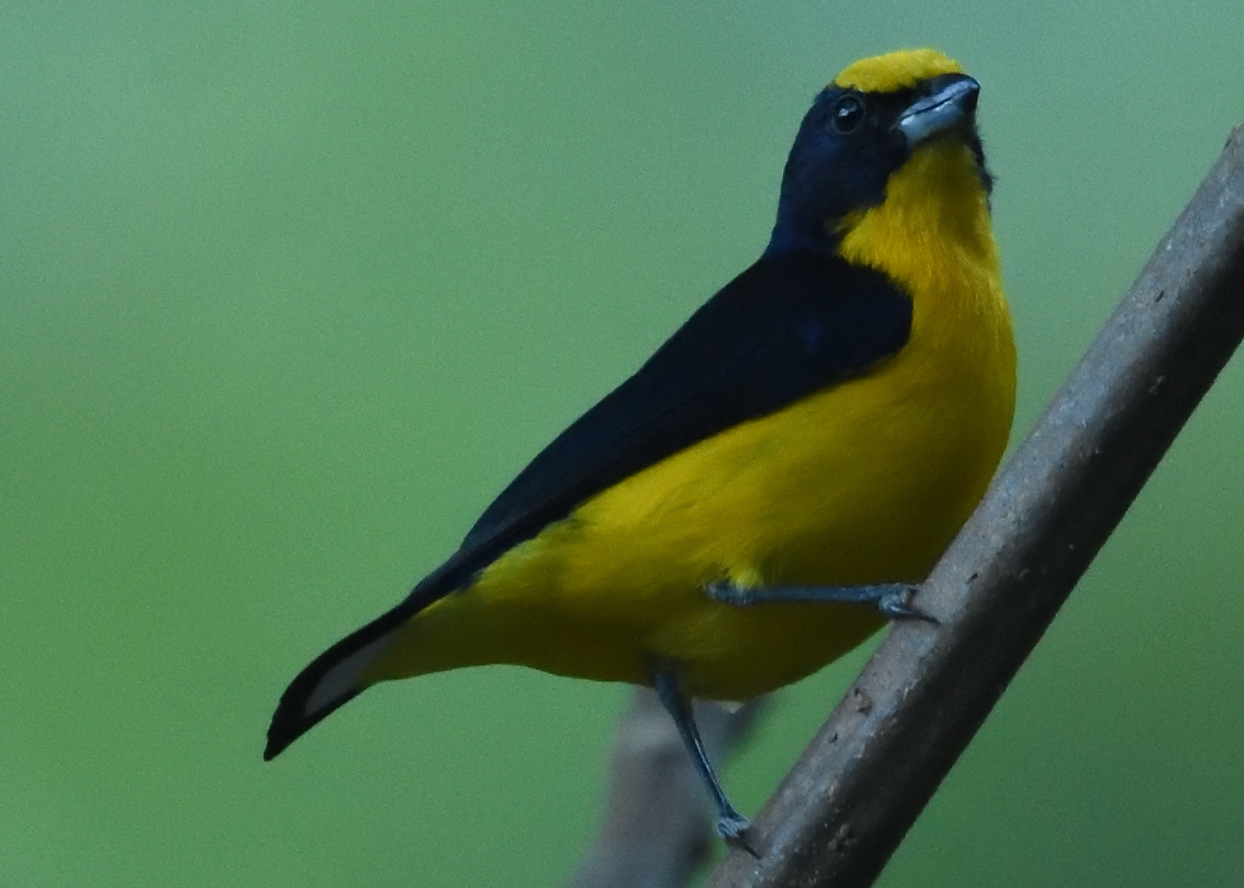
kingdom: Animalia
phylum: Chordata
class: Aves
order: Passeriformes
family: Fringillidae
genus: Euphonia
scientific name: Euphonia laniirostris
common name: Thick-billed euphonia
